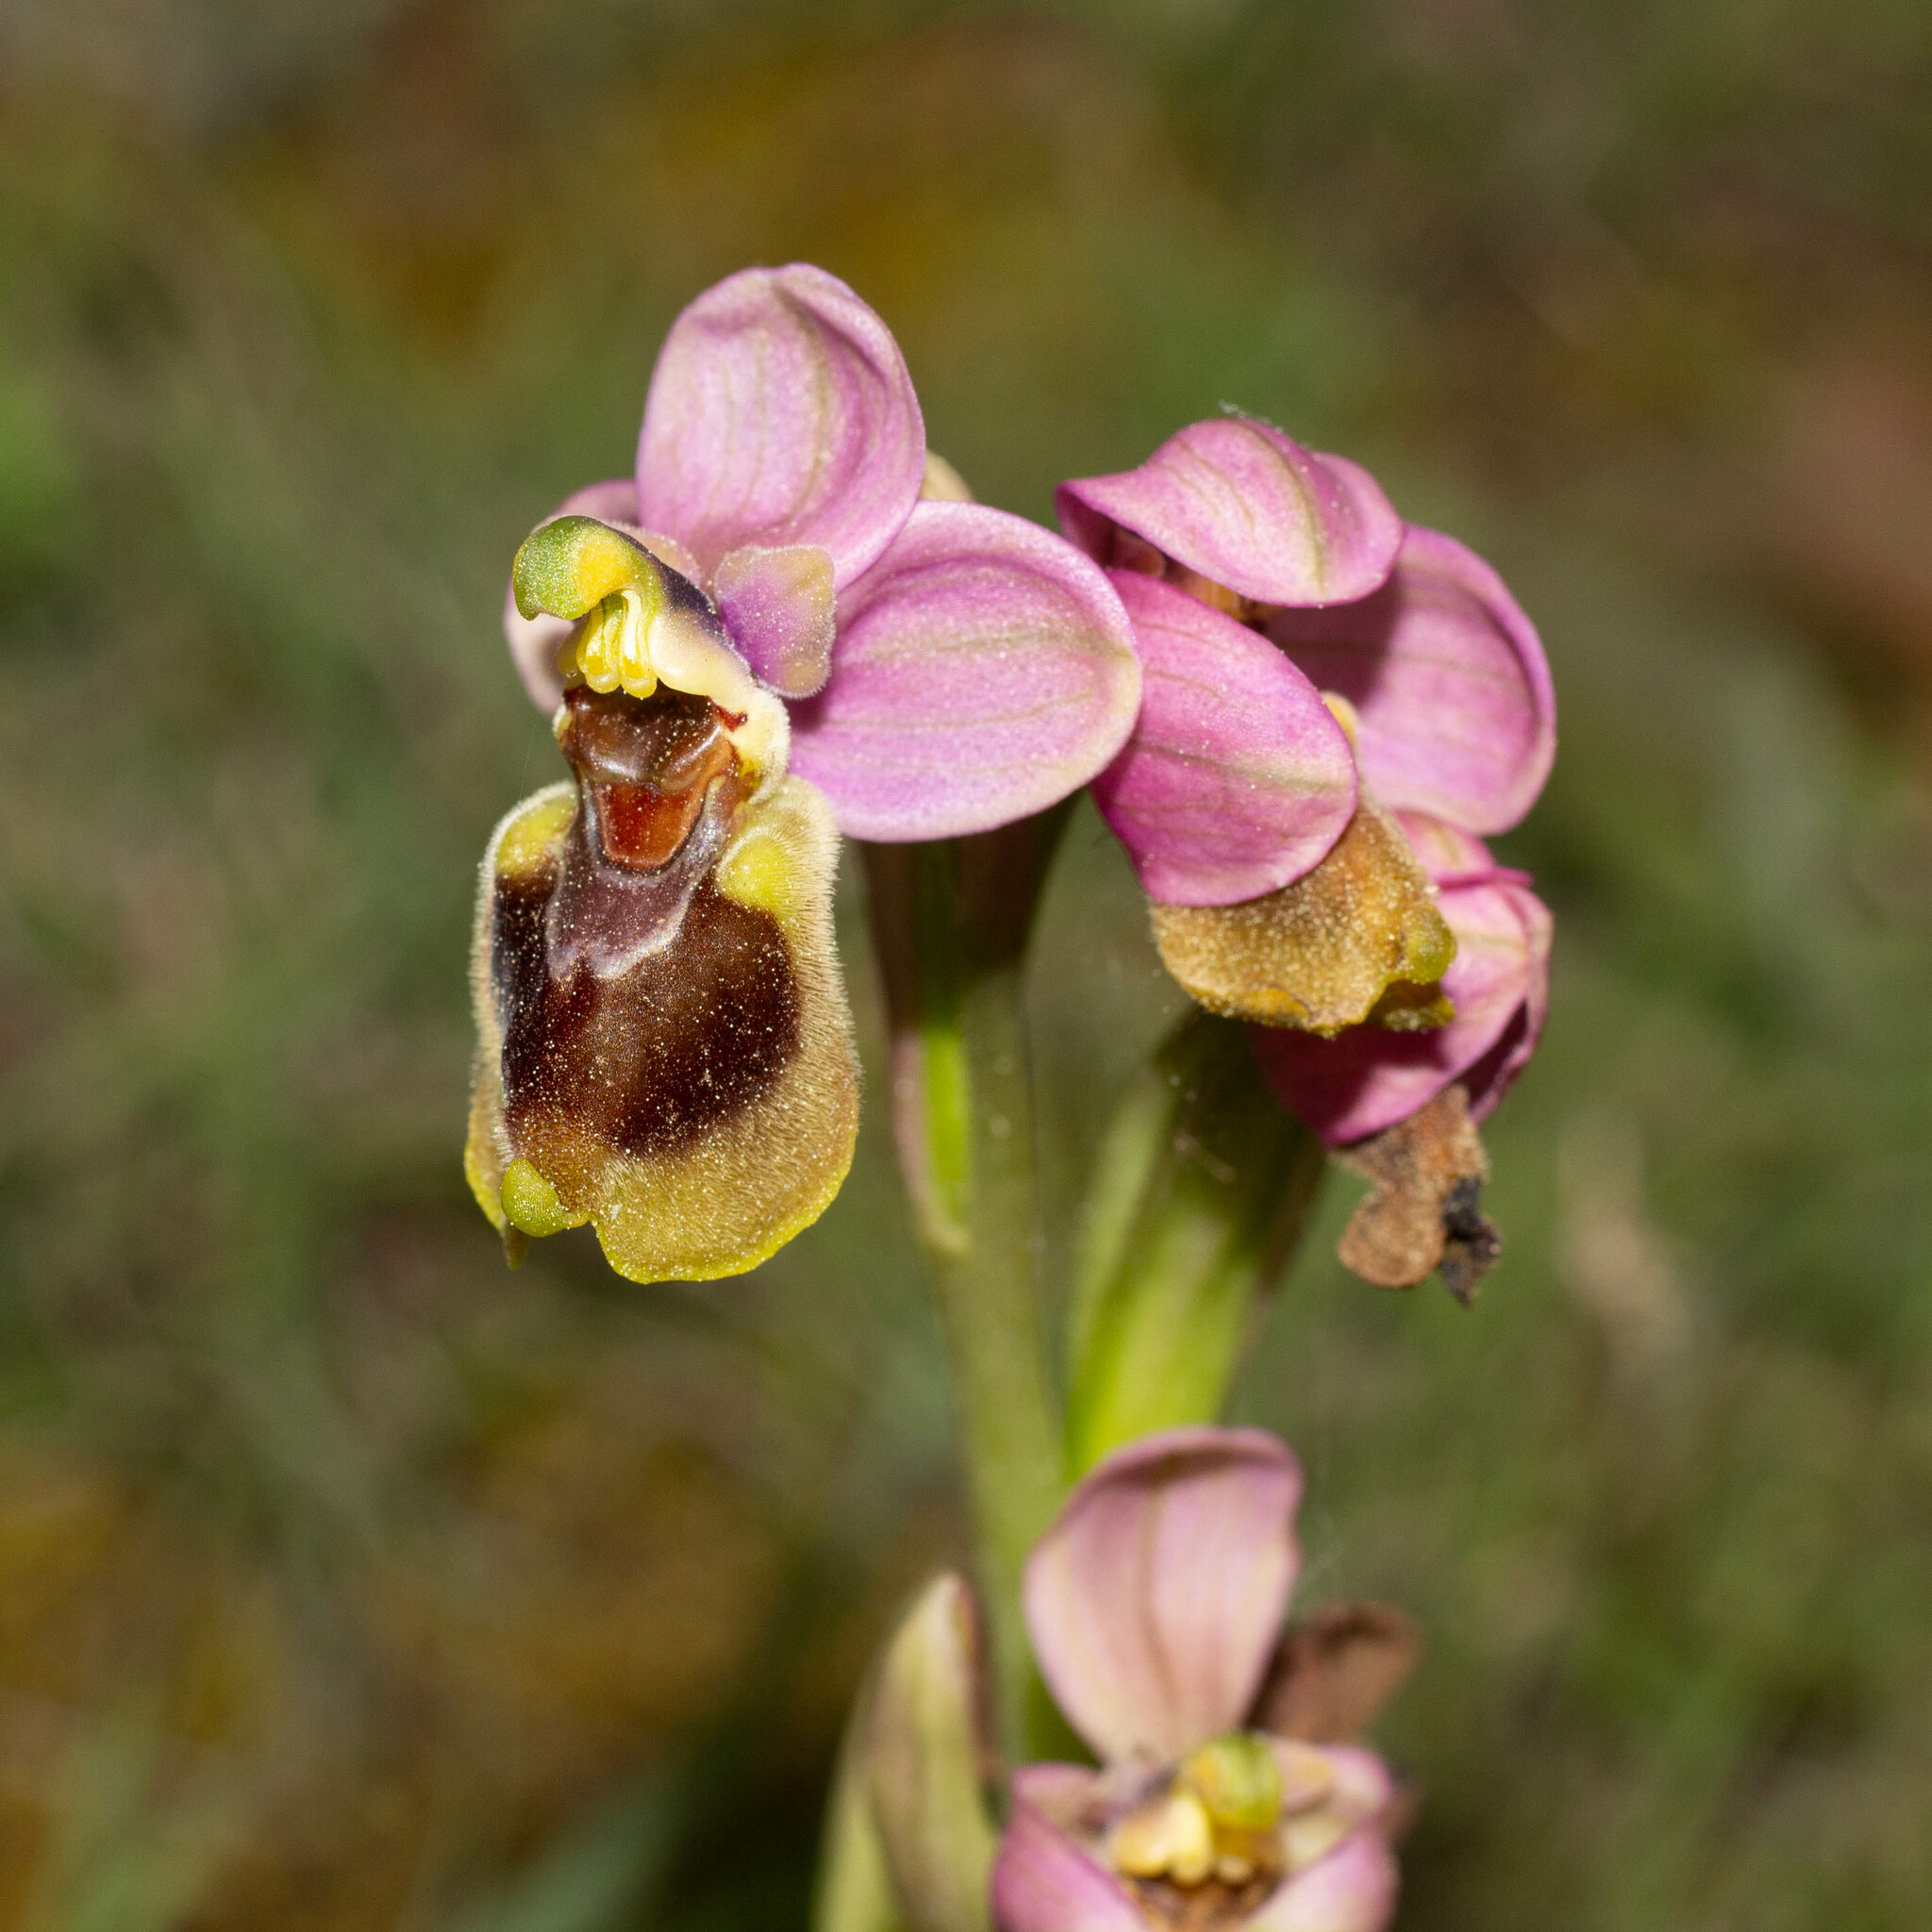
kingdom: Plantae
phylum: Tracheophyta
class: Liliopsida
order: Asparagales
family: Orchidaceae
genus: Ophrys
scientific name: Ophrys tenthredinifera
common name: Sawfly orchid
